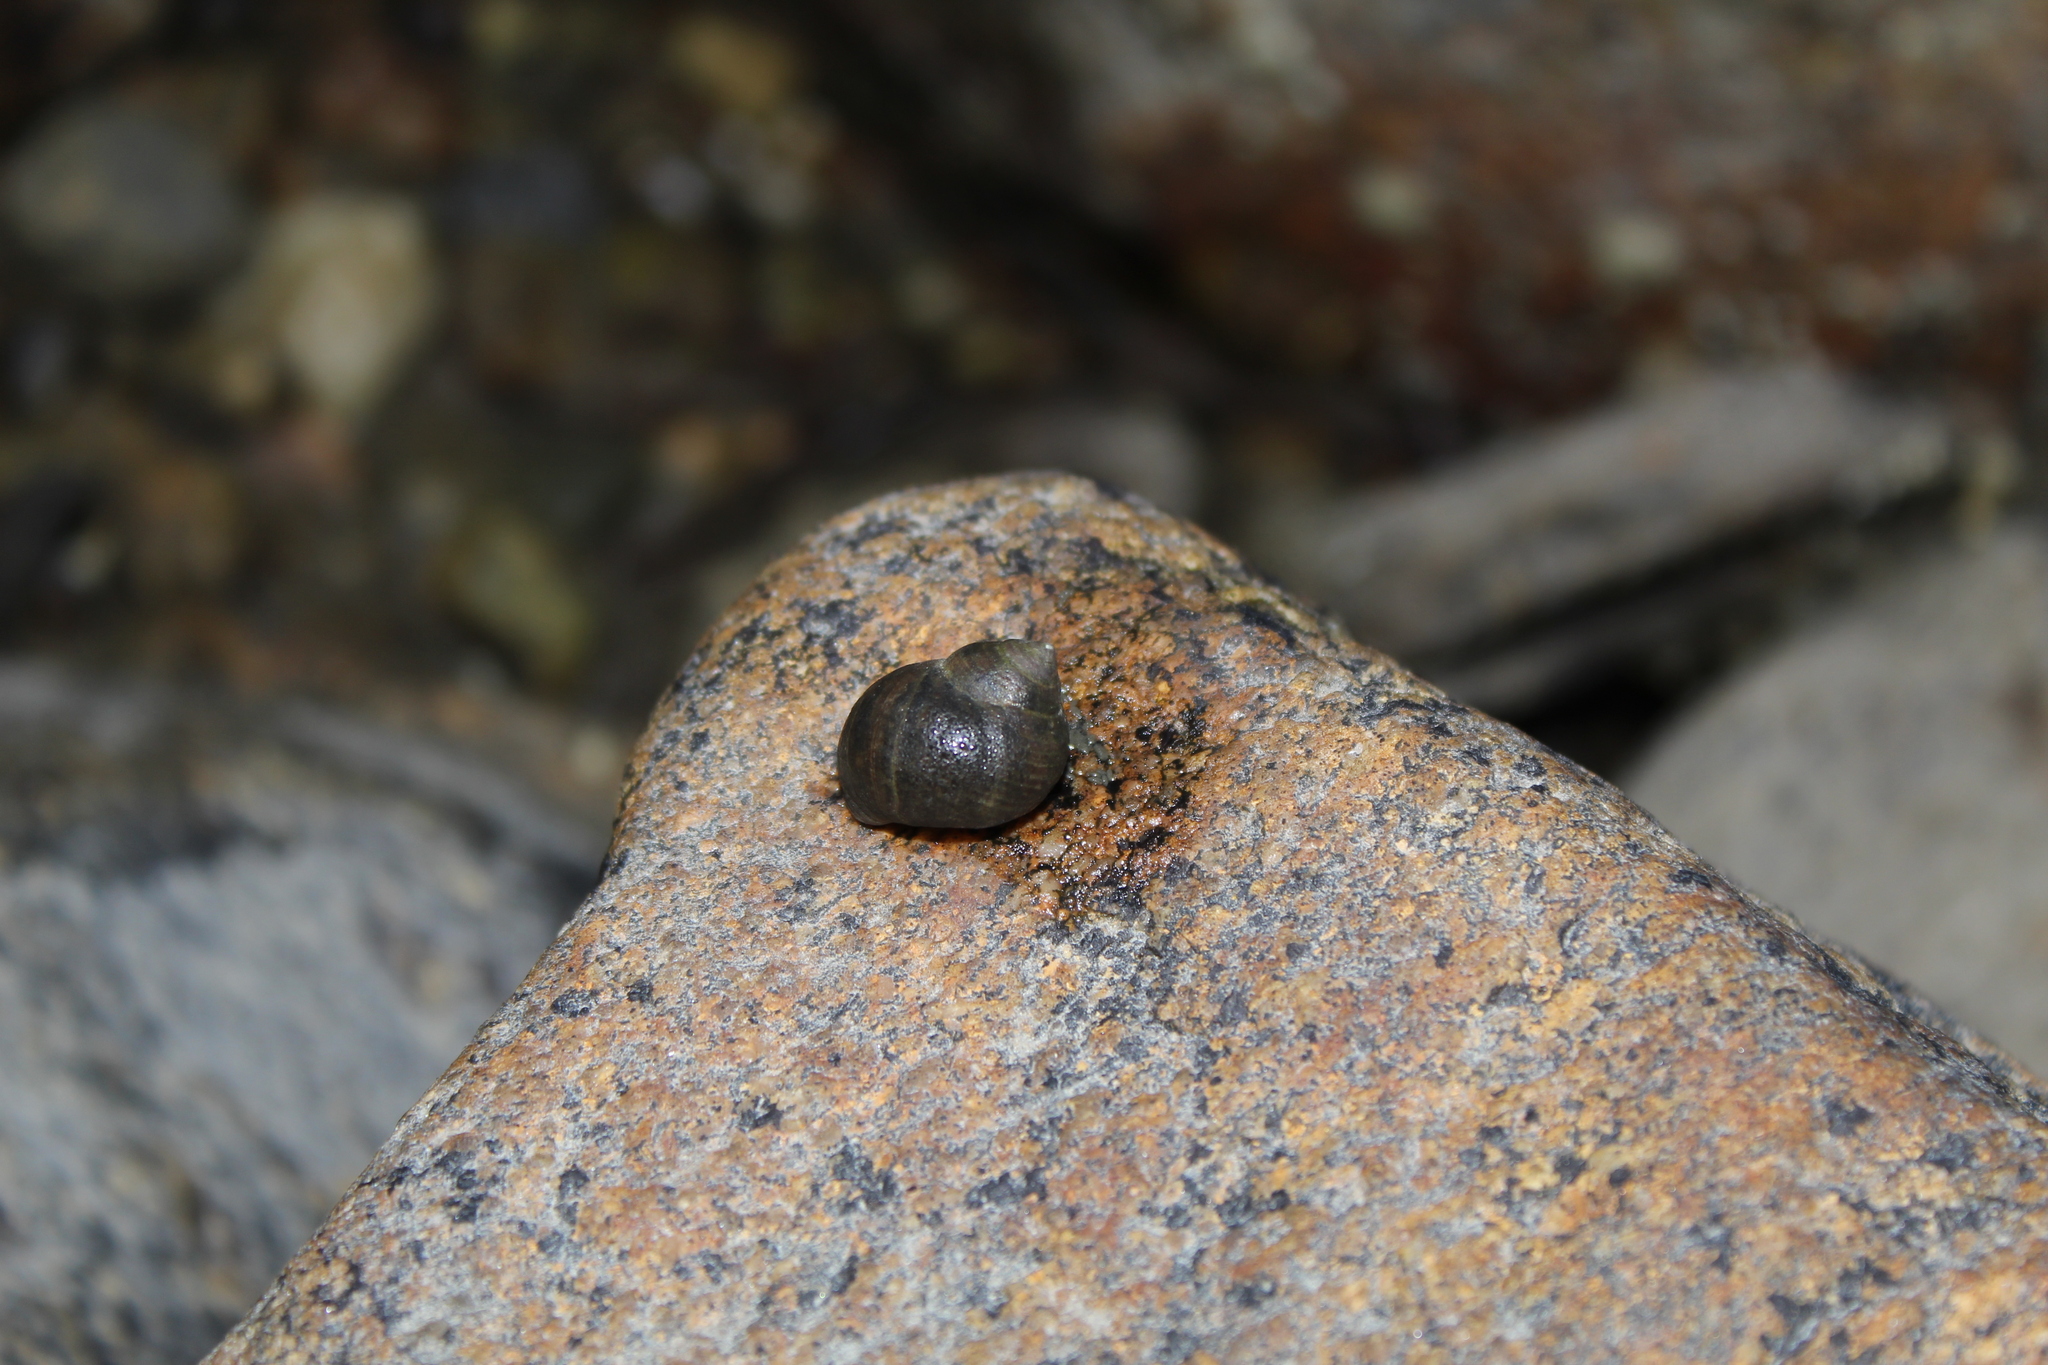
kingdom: Animalia
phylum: Mollusca
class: Gastropoda
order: Littorinimorpha
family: Littorinidae
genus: Littorina
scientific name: Littorina littorea
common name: Common periwinkle
